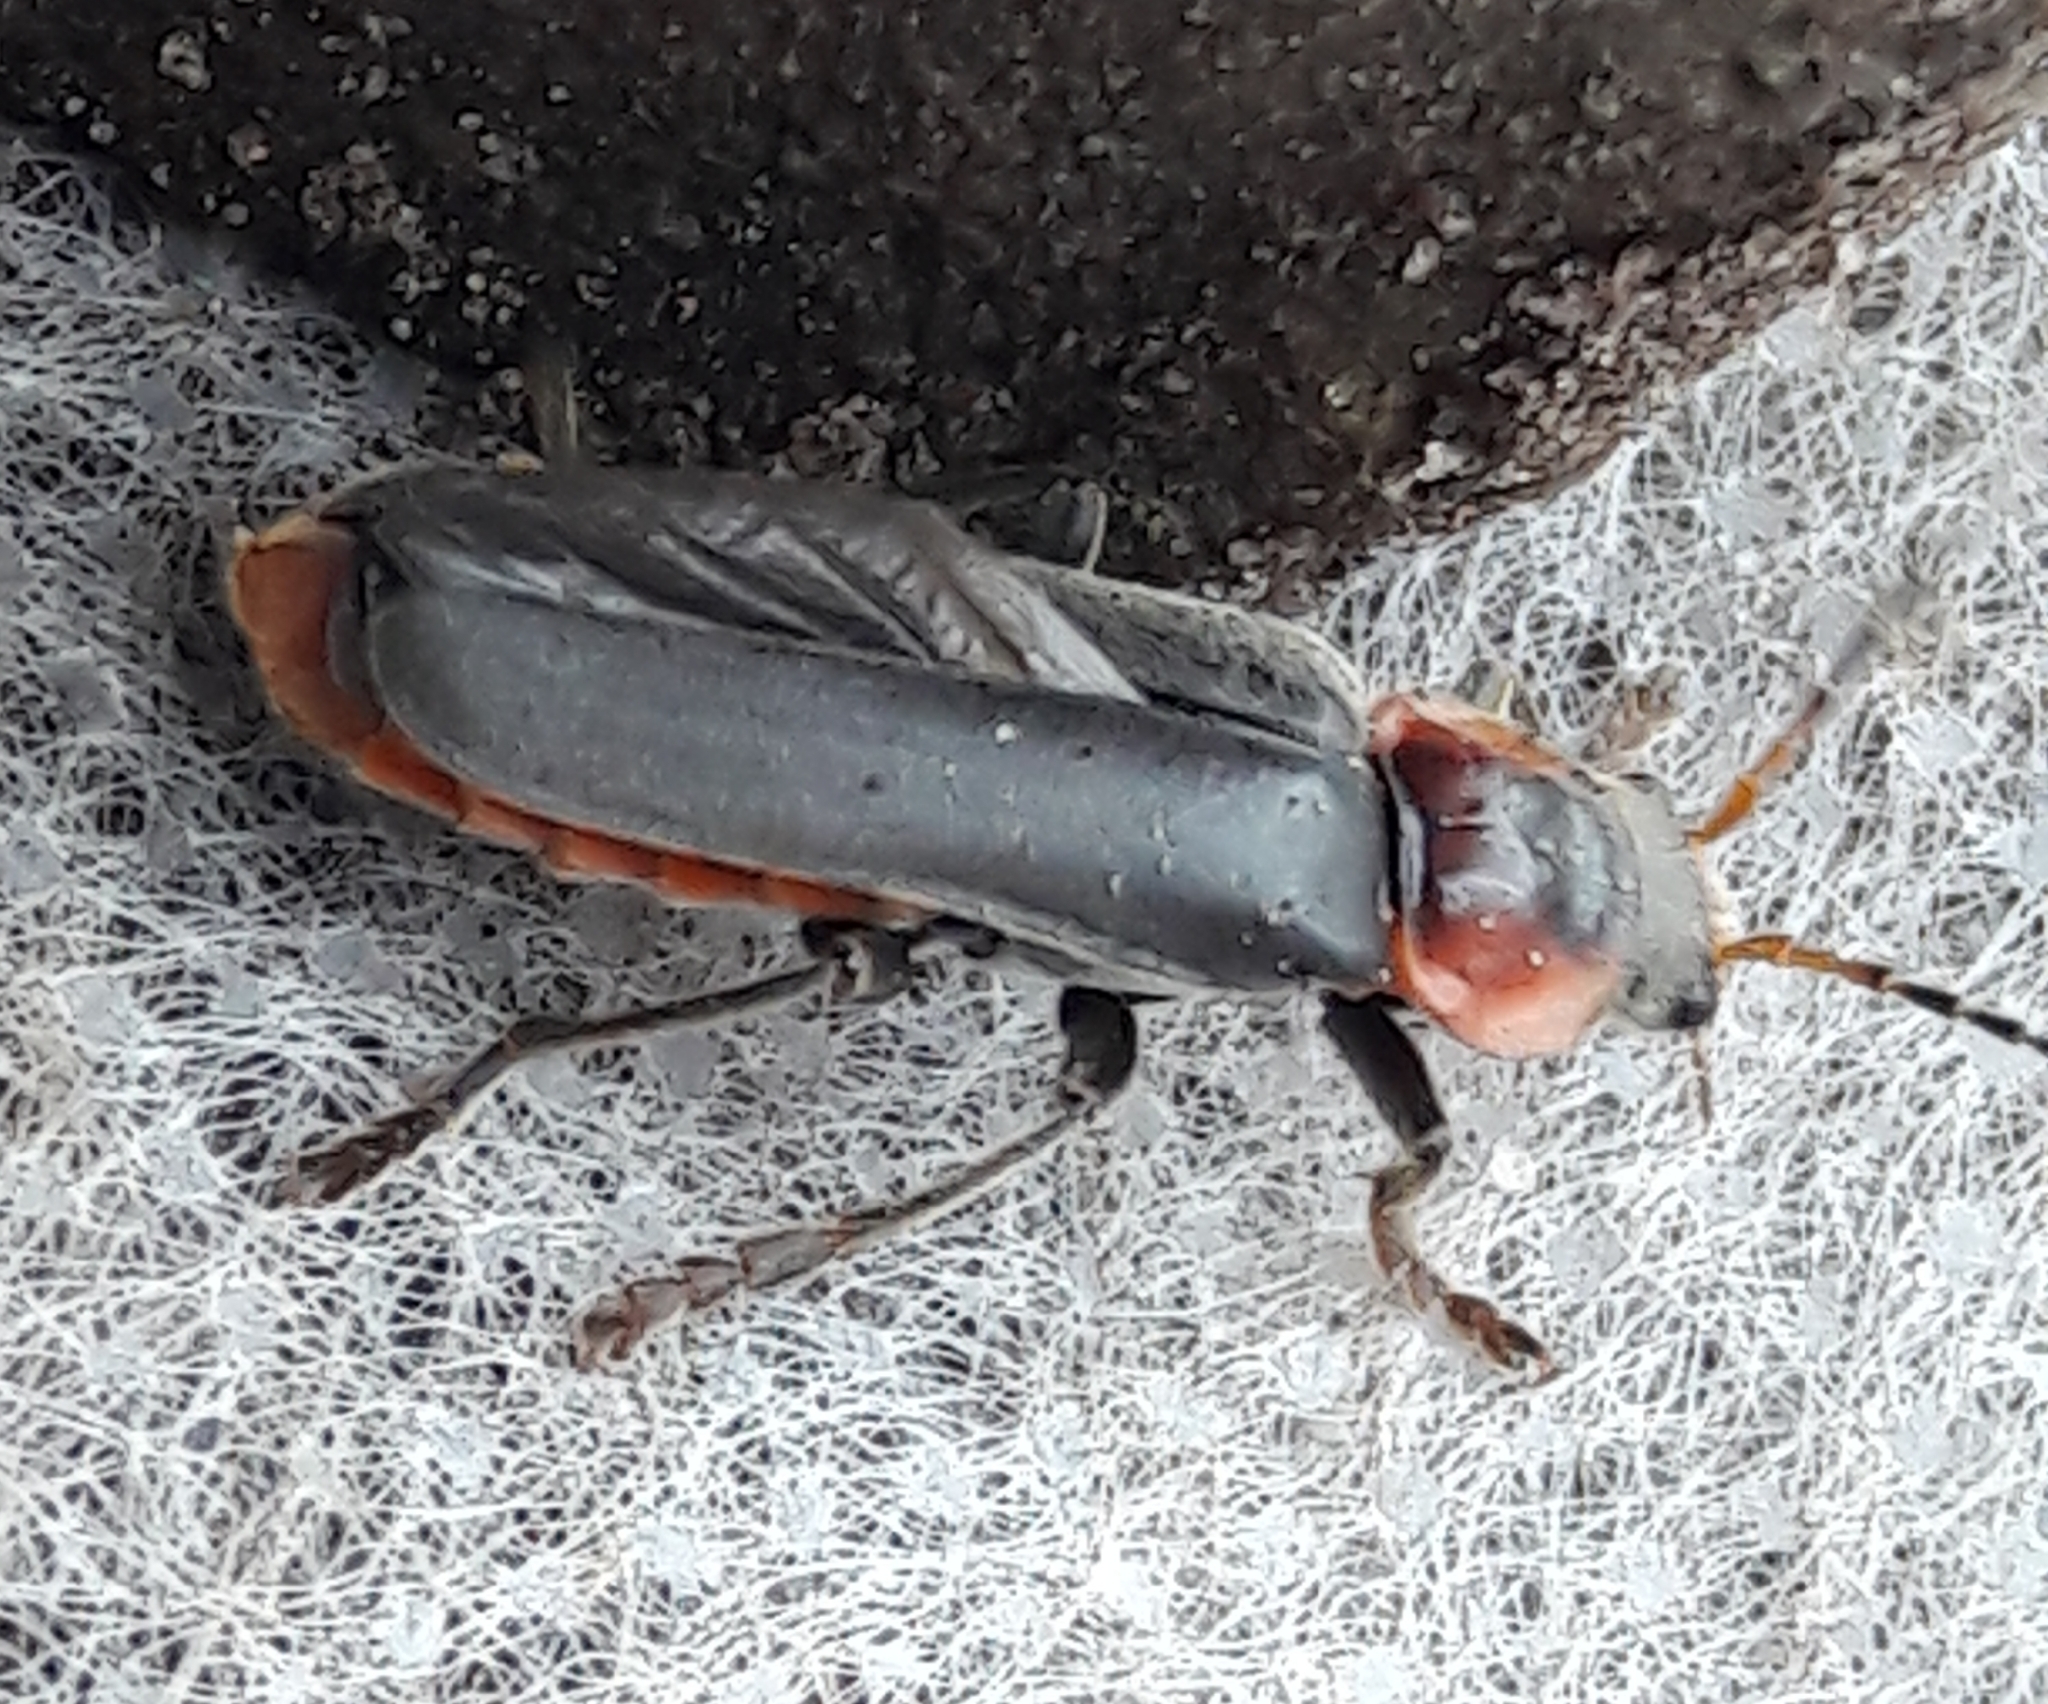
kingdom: Animalia
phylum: Arthropoda
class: Insecta
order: Coleoptera
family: Cantharidae
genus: Cantharis
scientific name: Cantharis fusca
